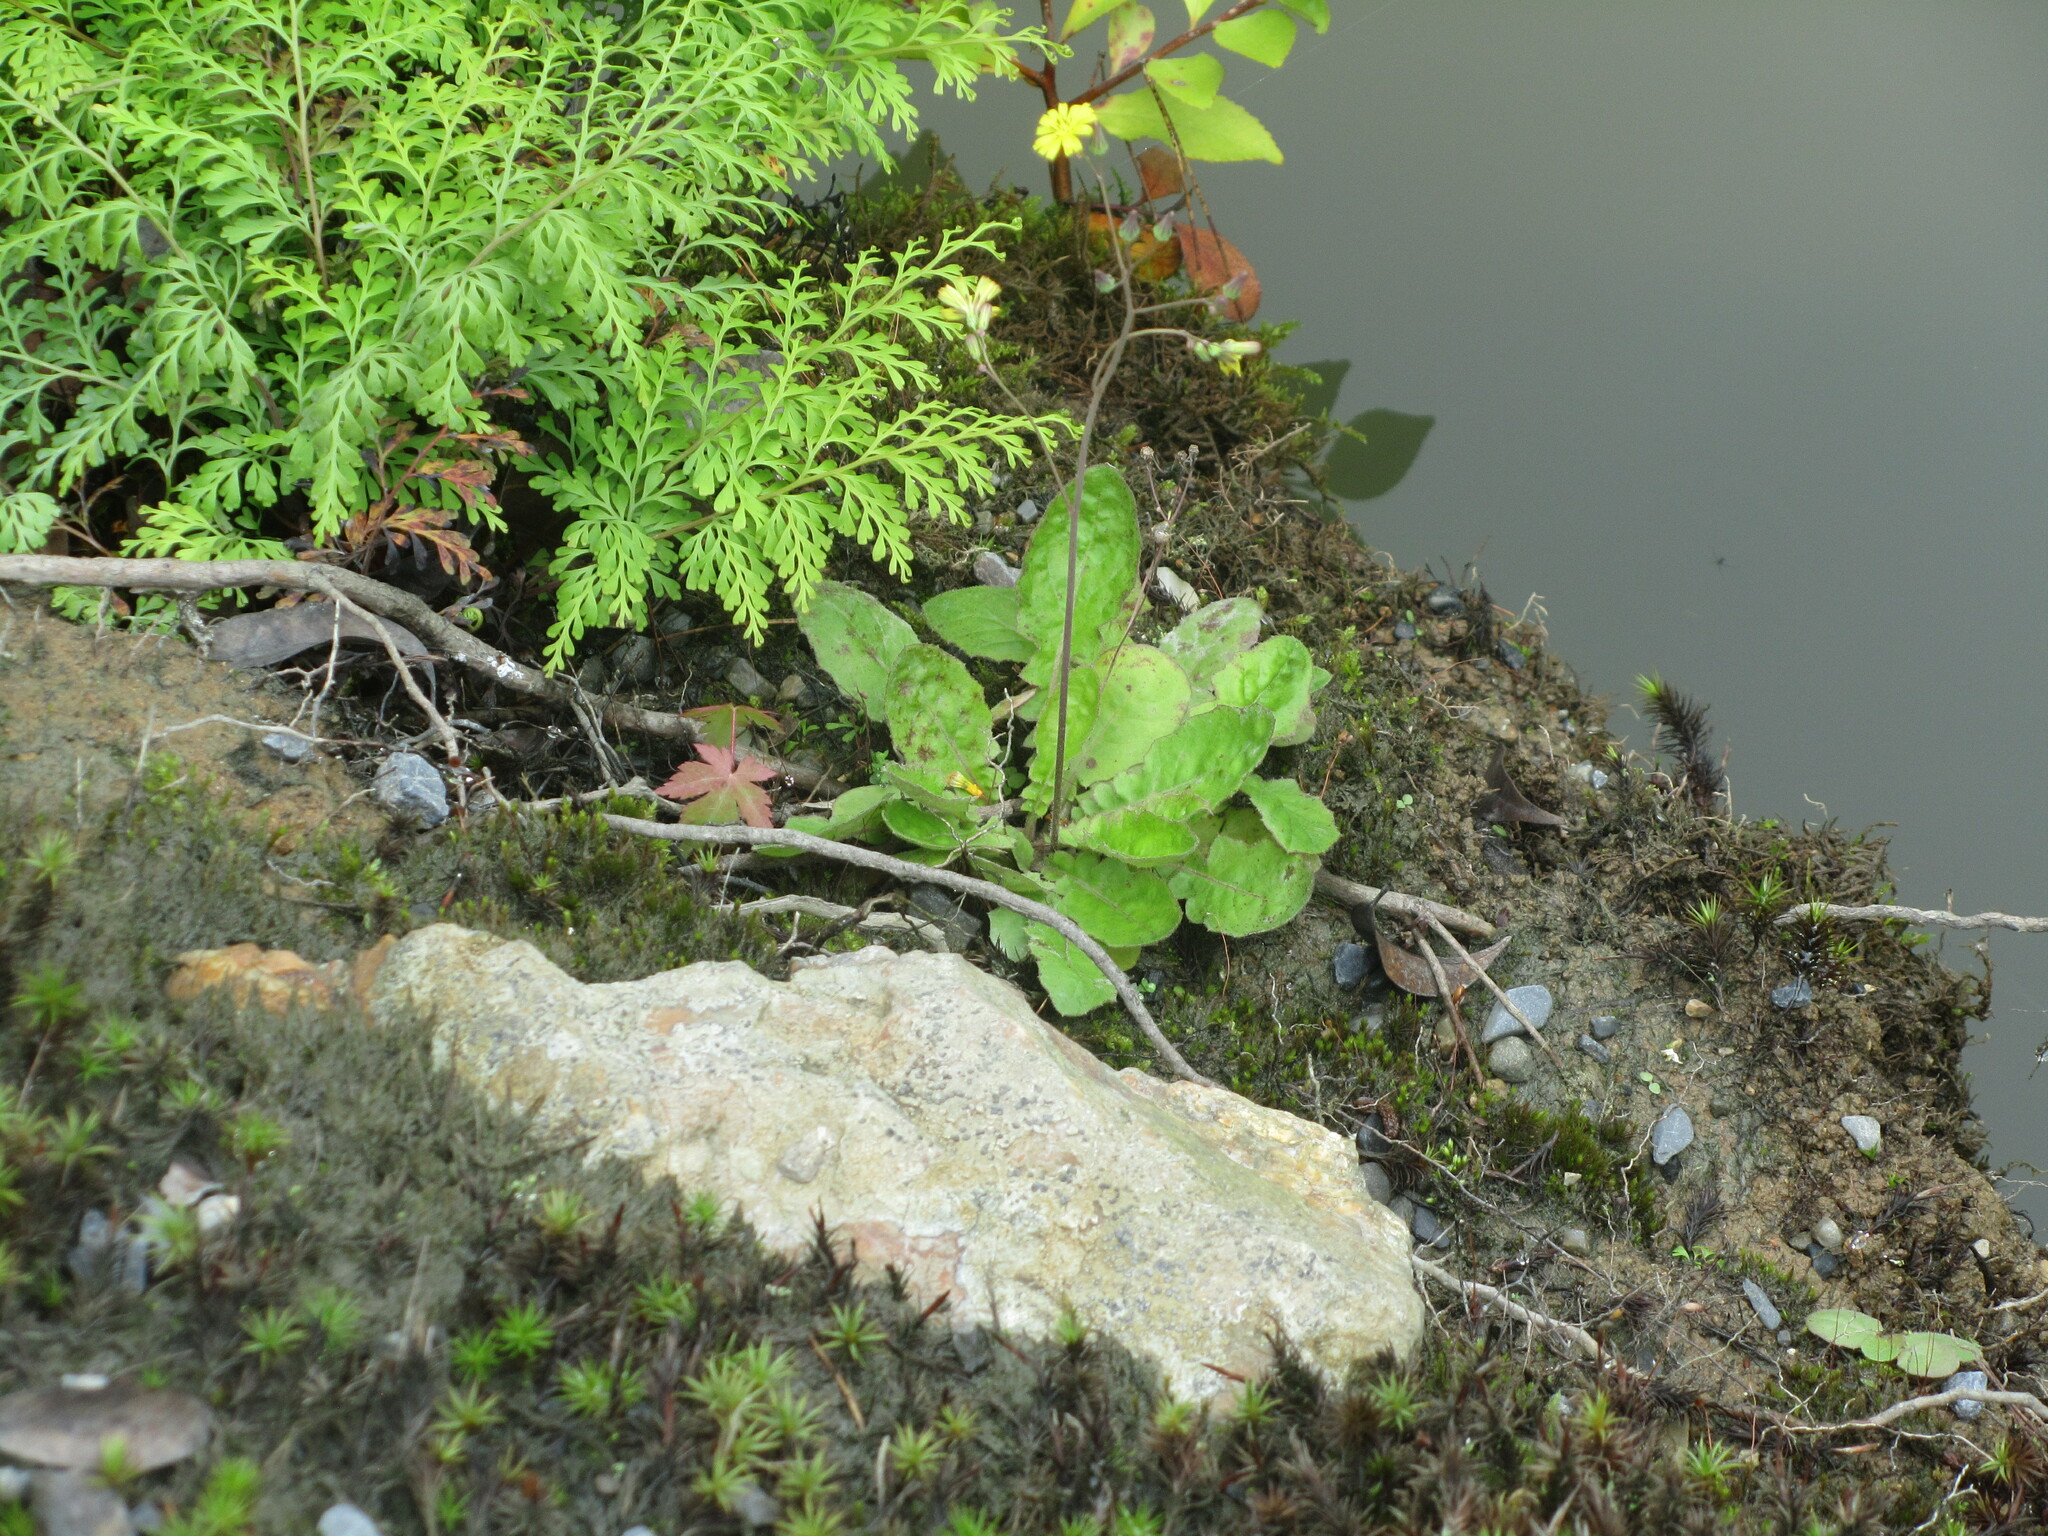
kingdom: Plantae
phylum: Tracheophyta
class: Magnoliopsida
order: Asterales
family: Asteraceae
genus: Youngia
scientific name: Youngia japonica
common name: Oriental false hawksbeard
